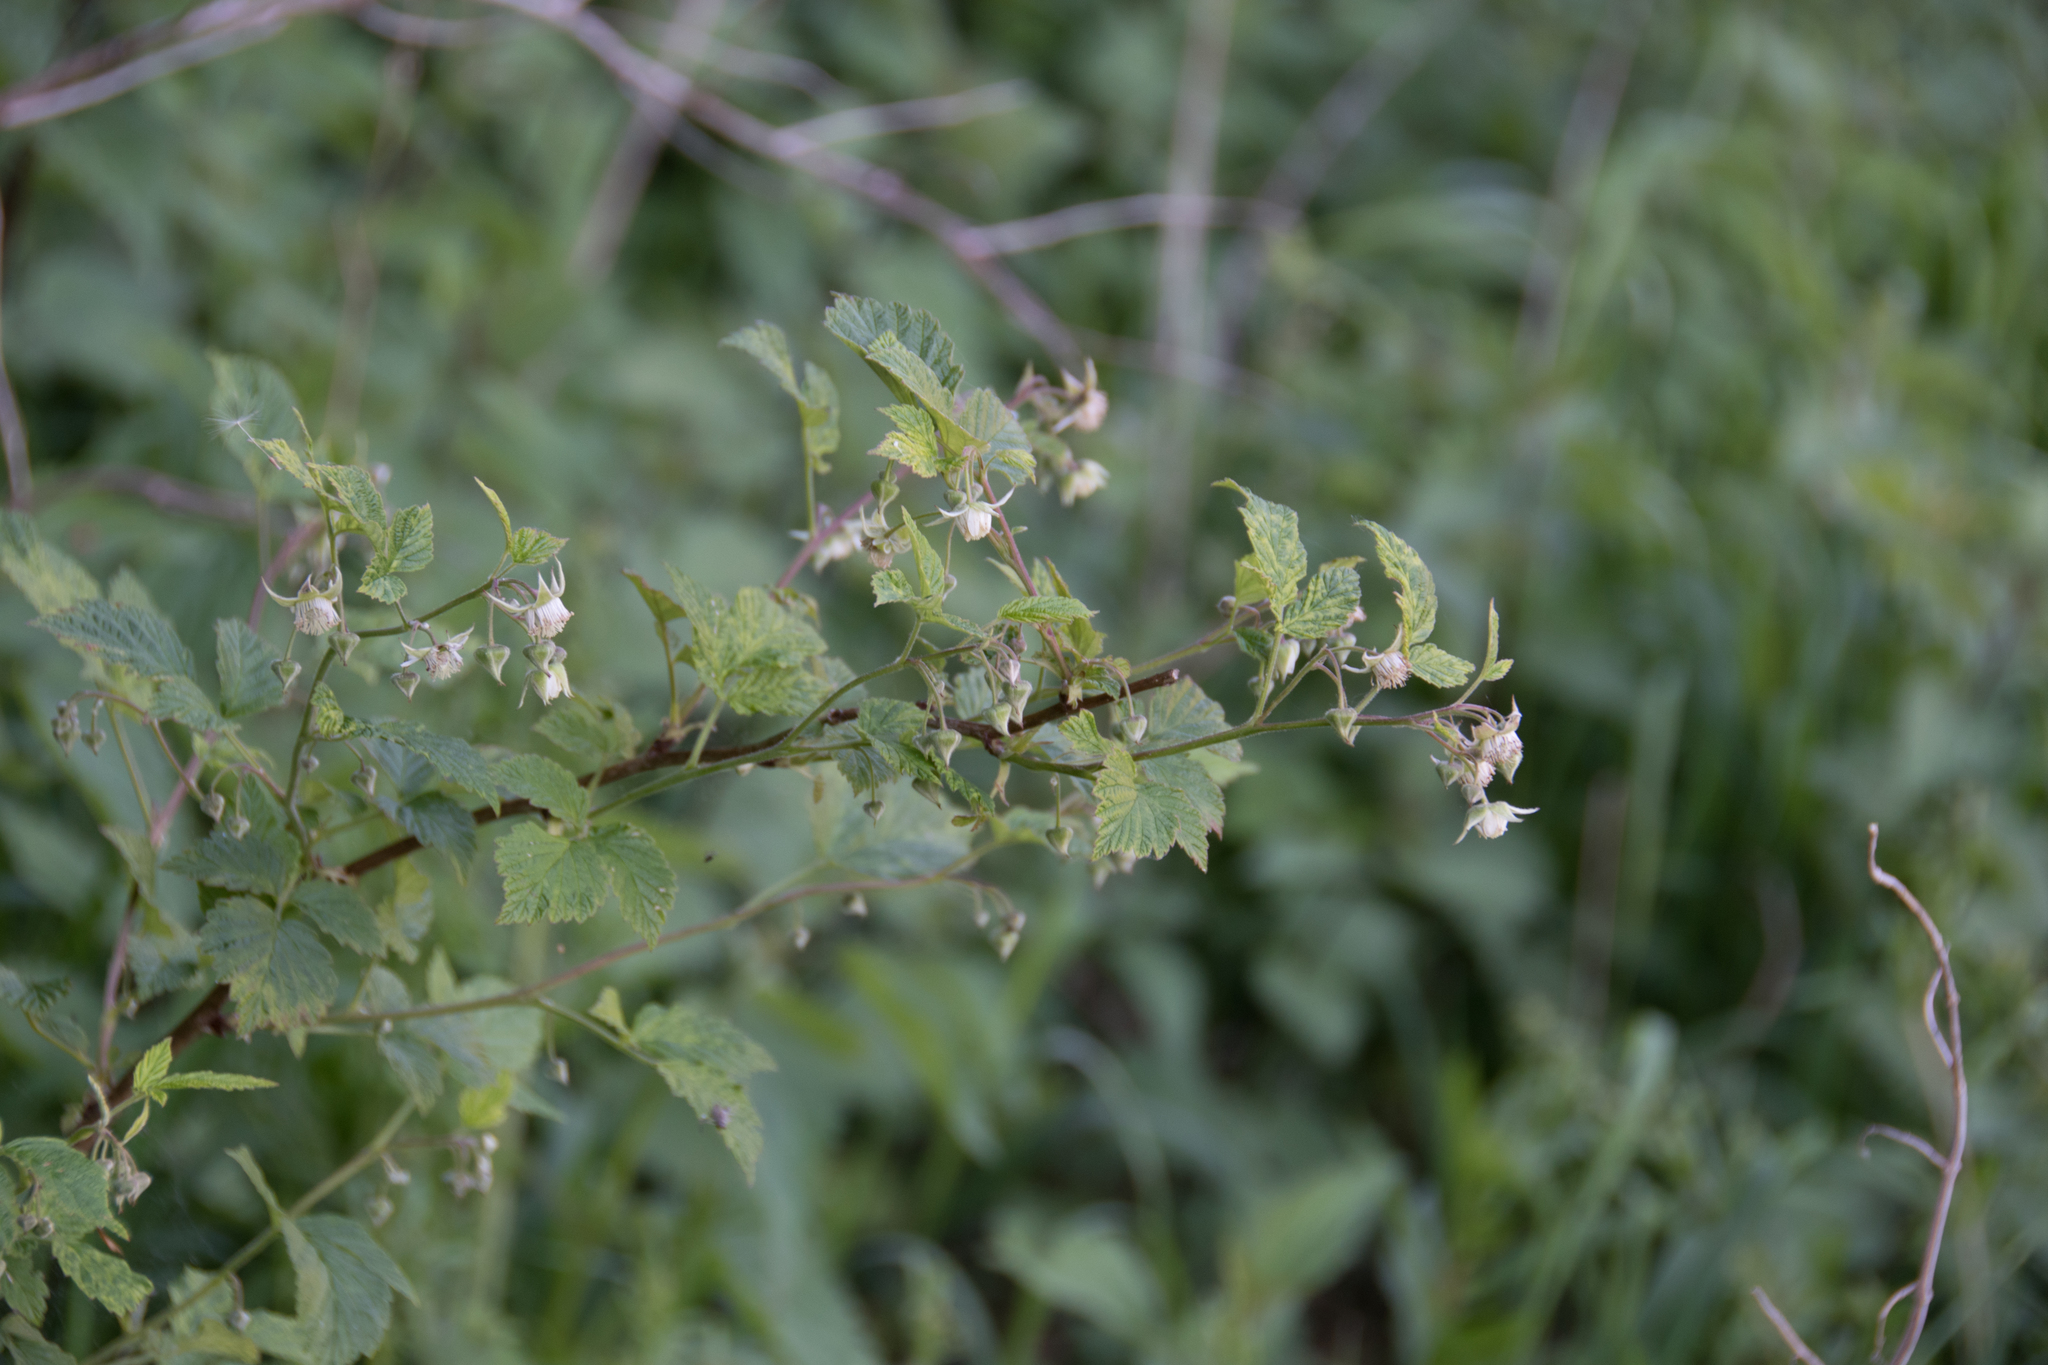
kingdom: Plantae
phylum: Tracheophyta
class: Magnoliopsida
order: Rosales
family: Rosaceae
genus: Rubus
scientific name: Rubus idaeus
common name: Raspberry
